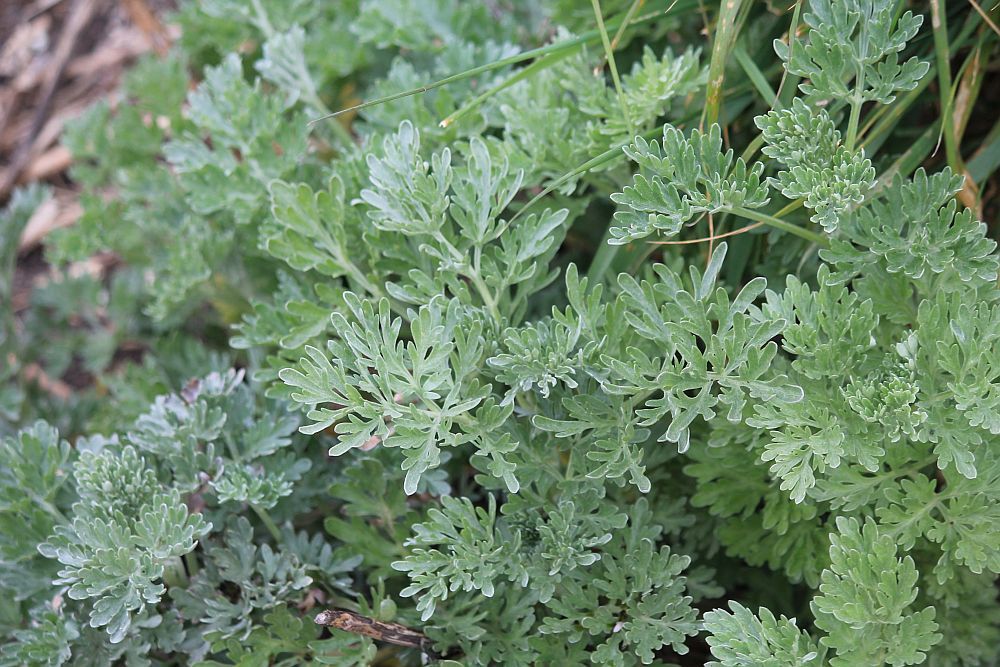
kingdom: Plantae
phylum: Tracheophyta
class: Magnoliopsida
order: Asterales
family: Asteraceae
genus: Artemisia
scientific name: Artemisia absinthium
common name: Wormwood
